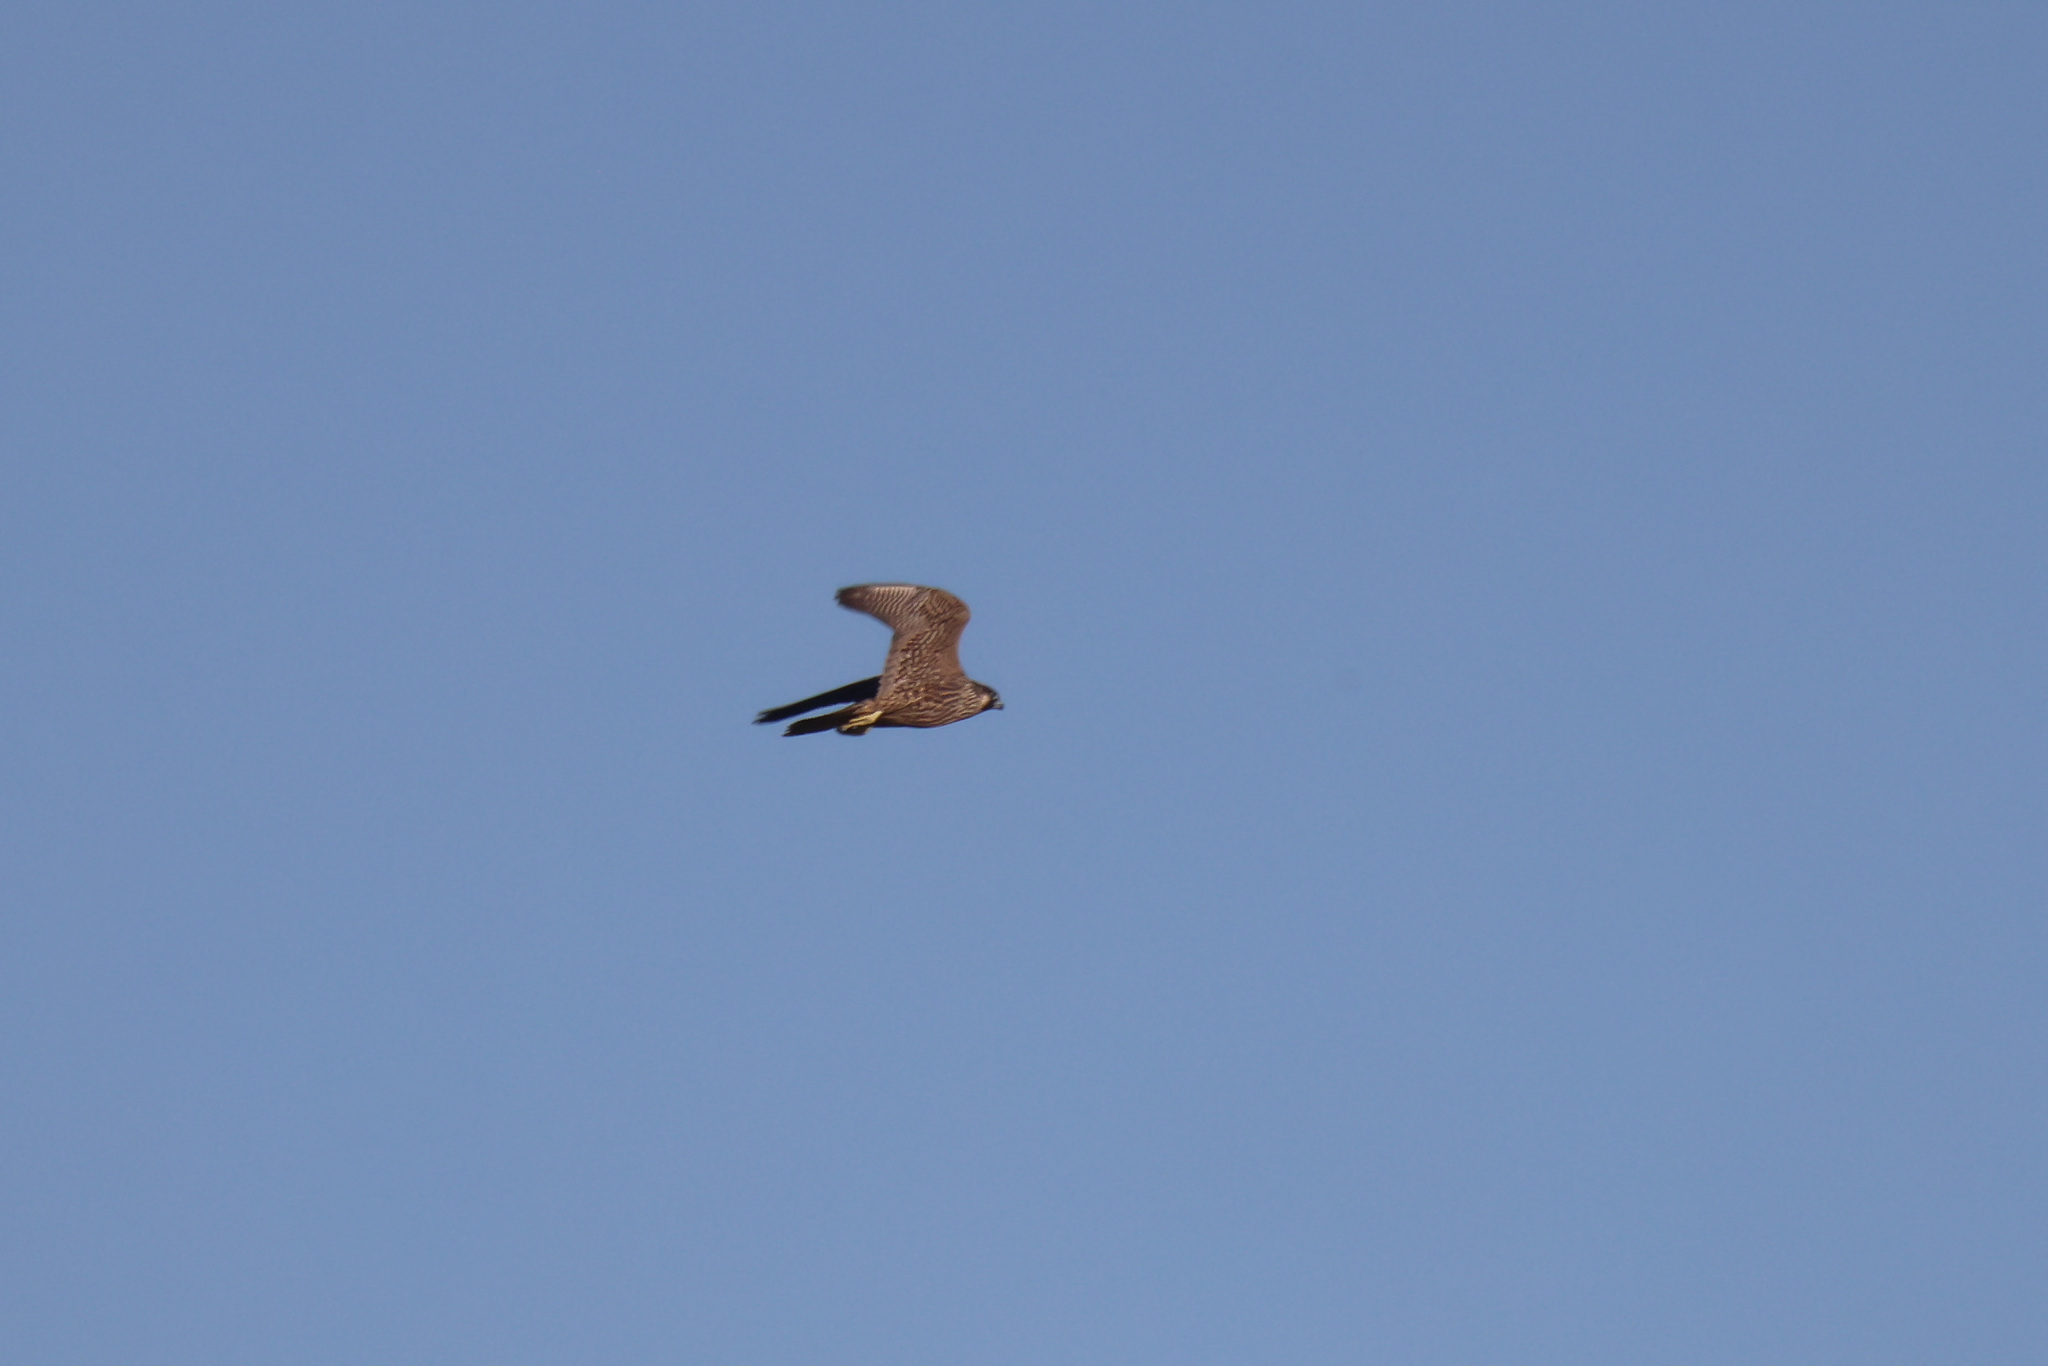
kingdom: Animalia
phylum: Chordata
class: Aves
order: Falconiformes
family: Falconidae
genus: Falco
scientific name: Falco peregrinus
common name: Peregrine falcon
